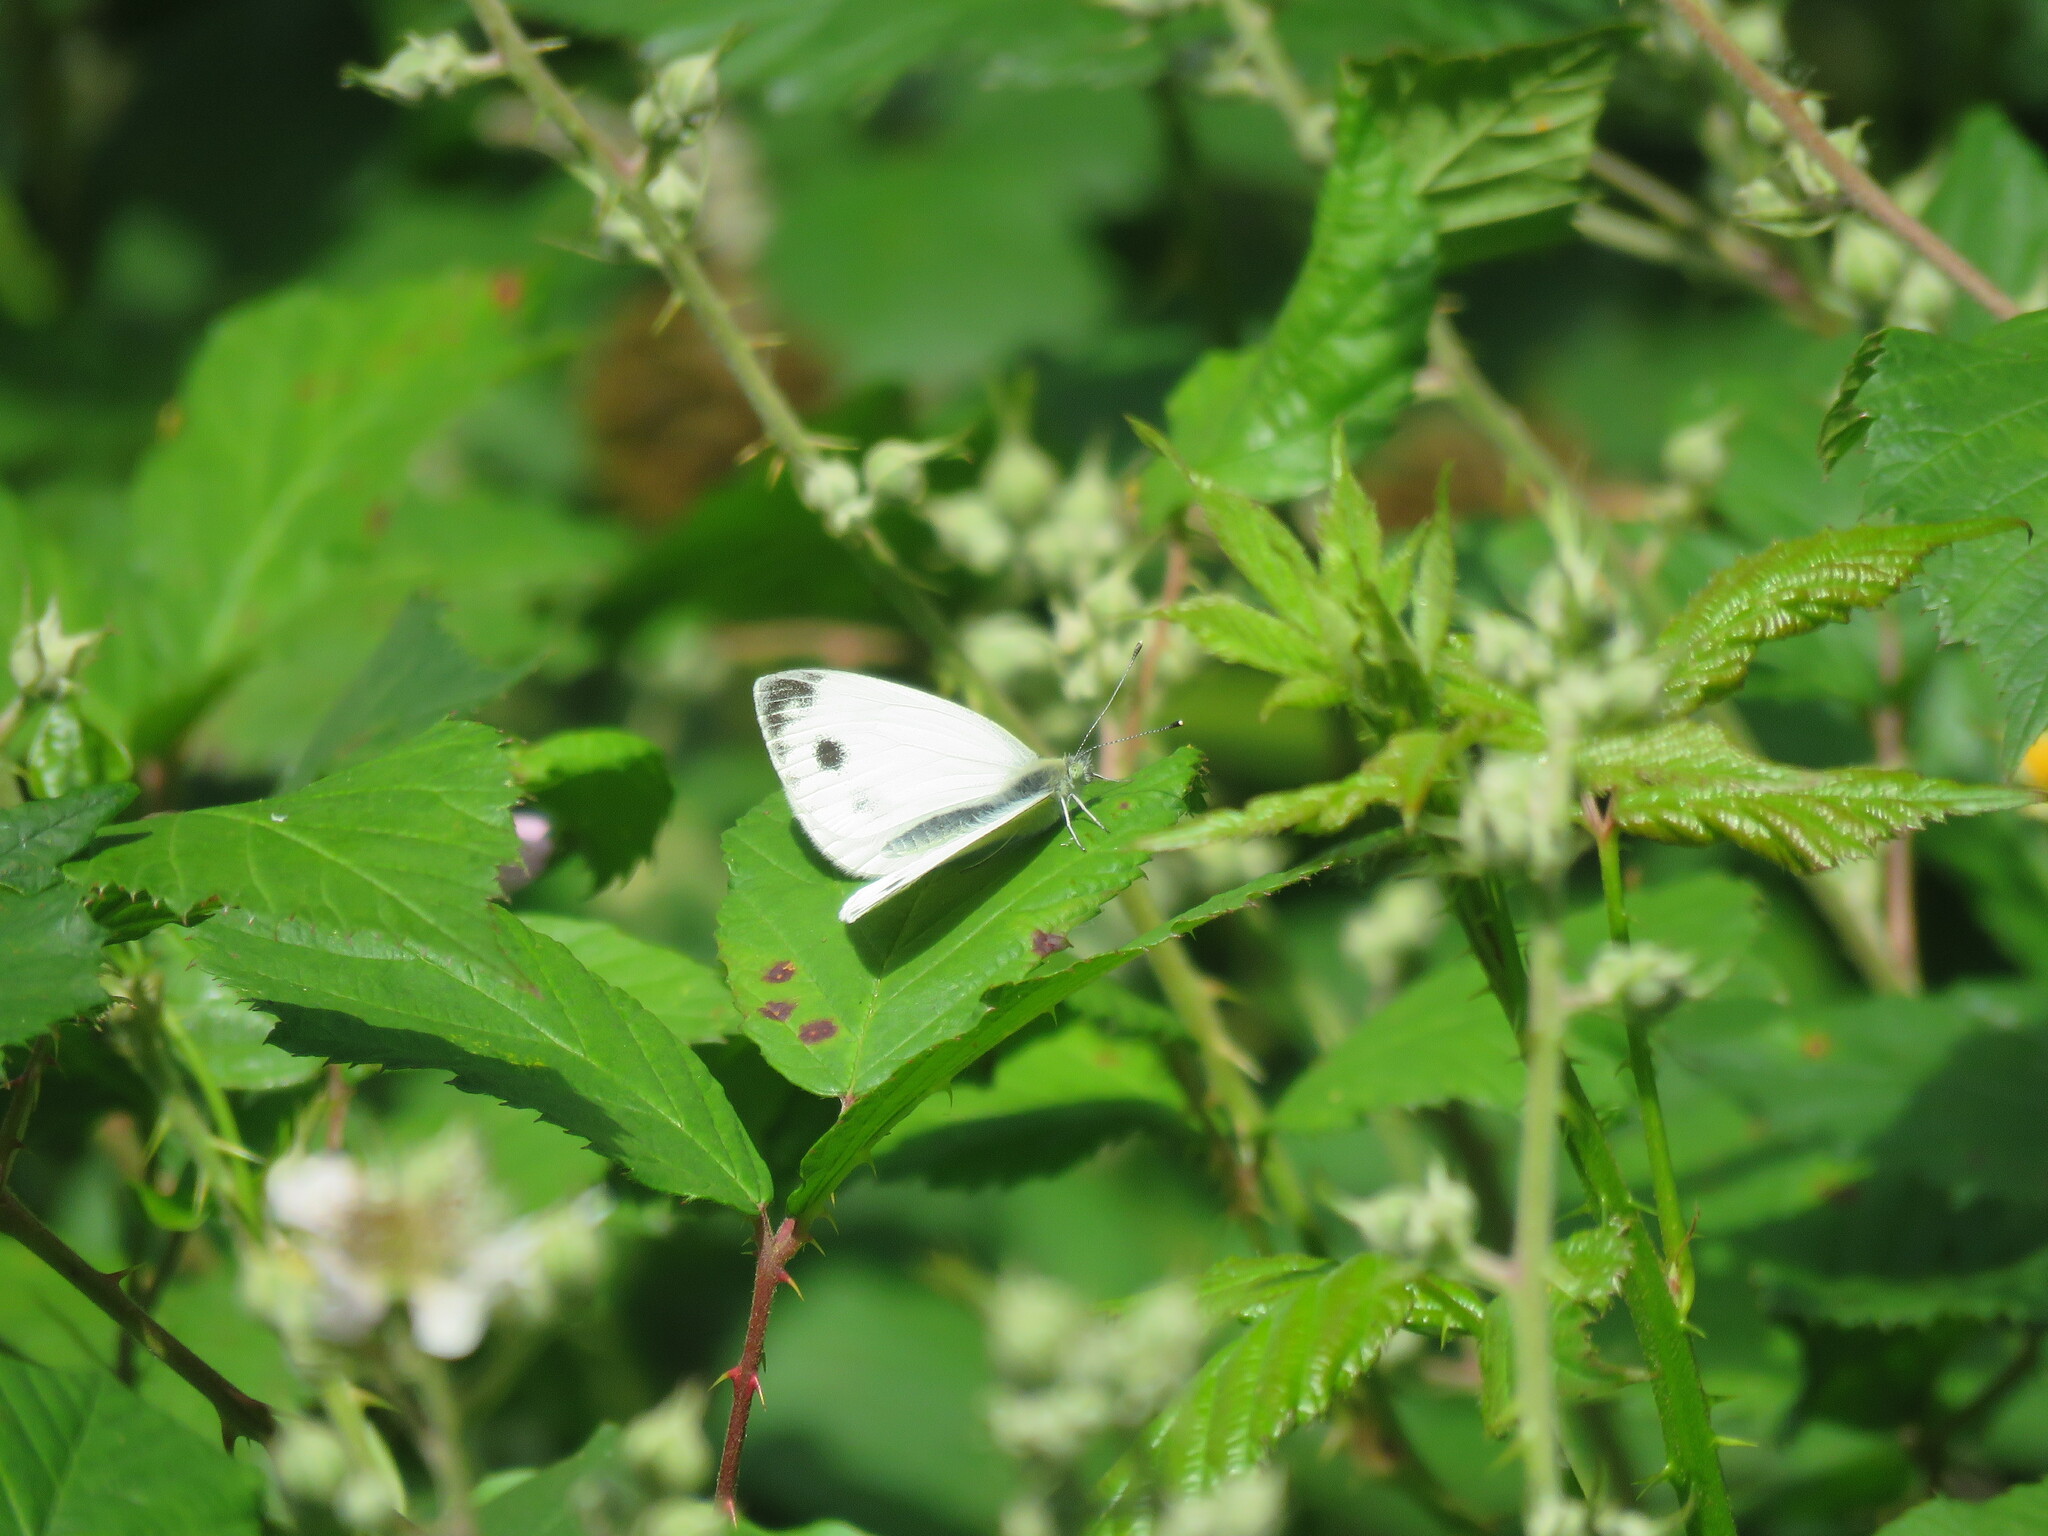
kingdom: Animalia
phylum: Arthropoda
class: Insecta
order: Lepidoptera
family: Pieridae
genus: Pieris
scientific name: Pieris napi
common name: Green-veined white
